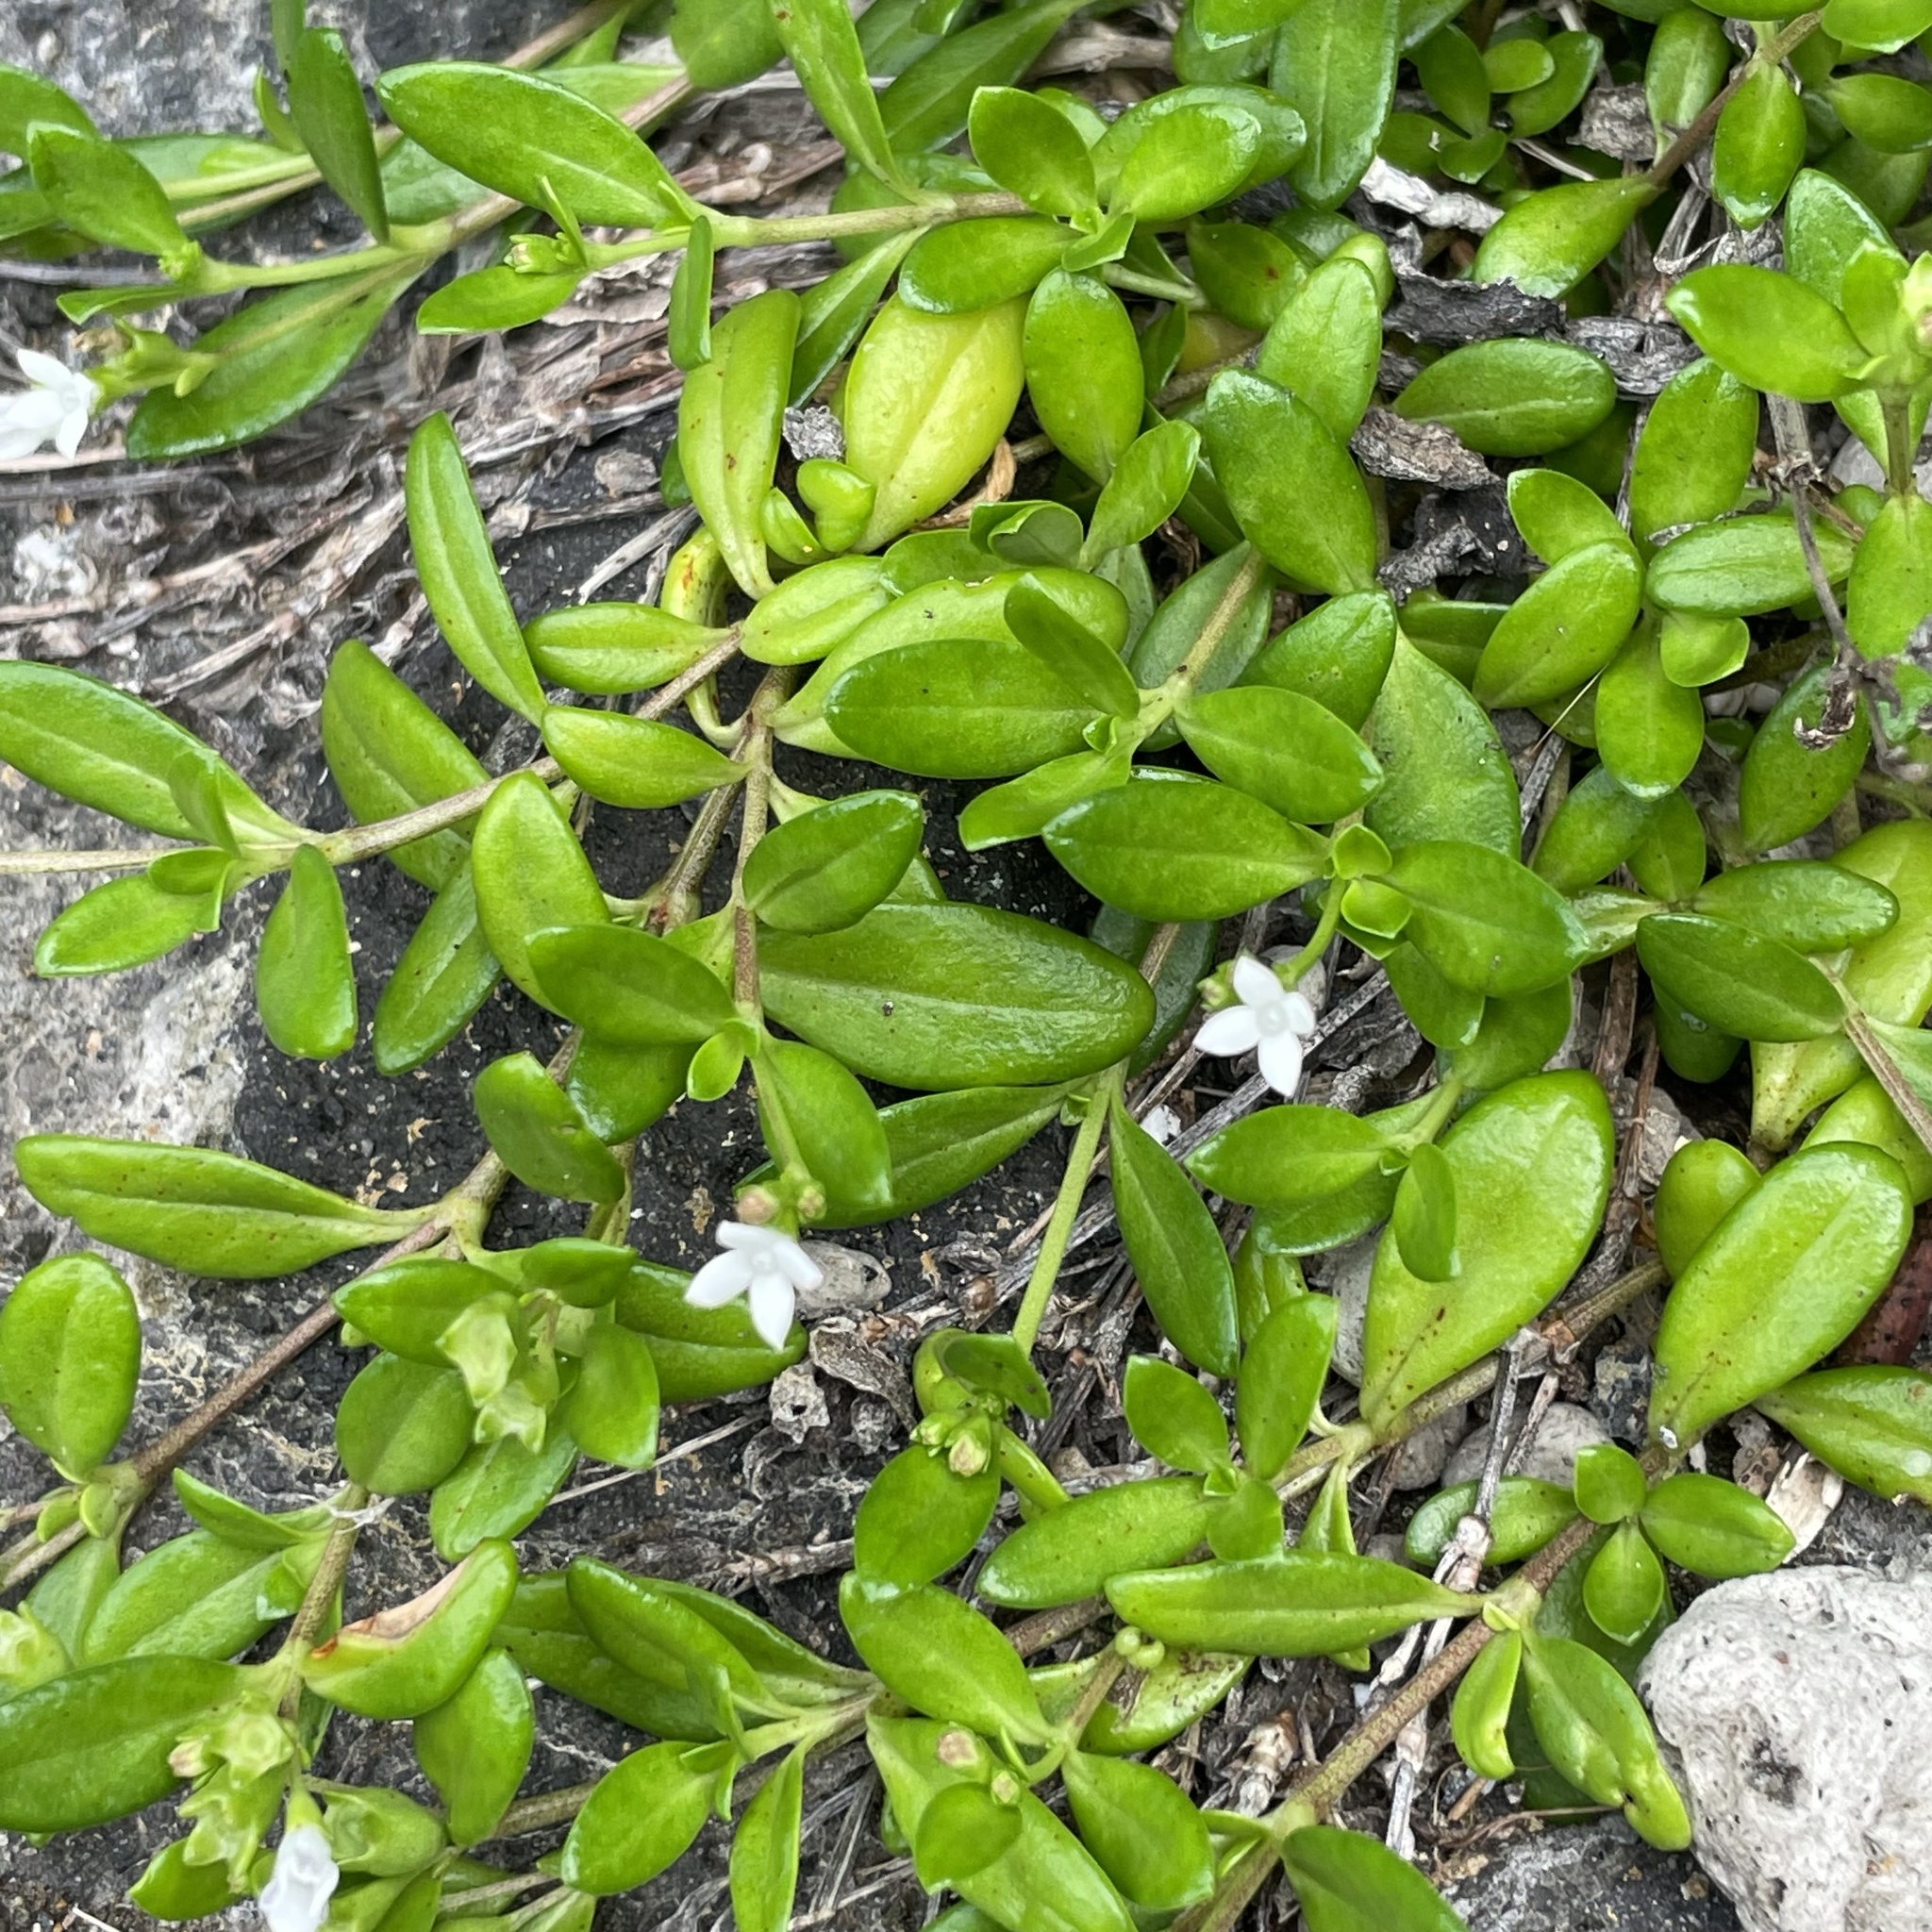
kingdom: Plantae
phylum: Tracheophyta
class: Magnoliopsida
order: Gentianales
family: Rubiaceae
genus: Leptopetalum
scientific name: Leptopetalum strigulosum
